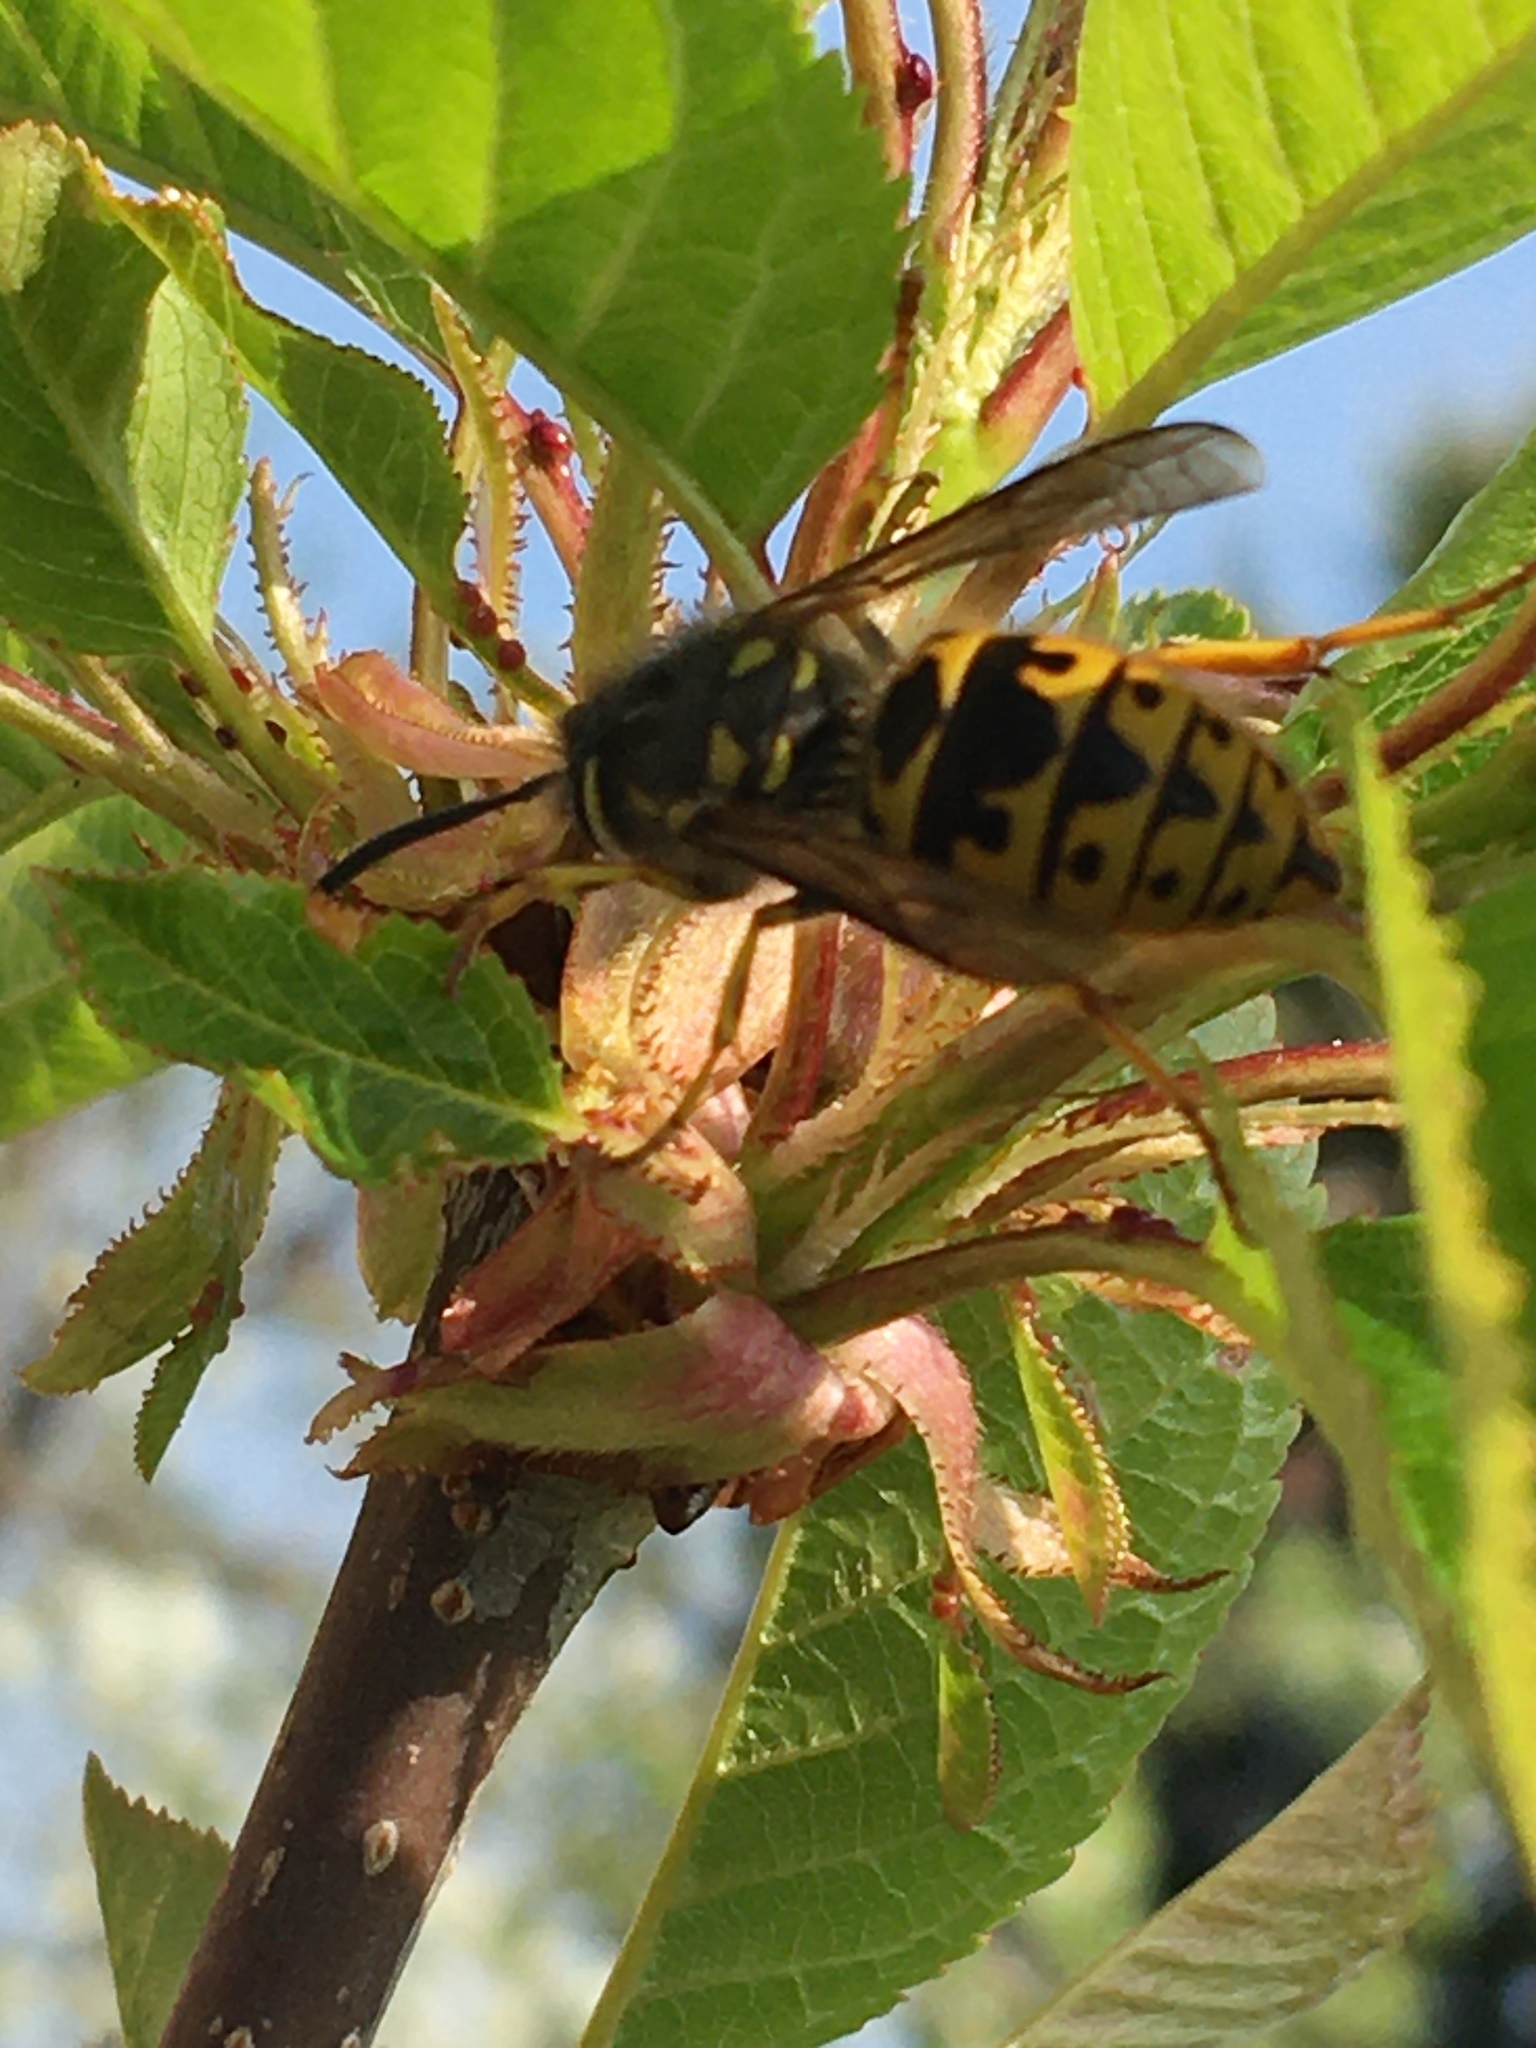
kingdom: Animalia
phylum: Arthropoda
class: Insecta
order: Hymenoptera
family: Vespidae
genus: Vespula
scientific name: Vespula germanica
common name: German wasp
